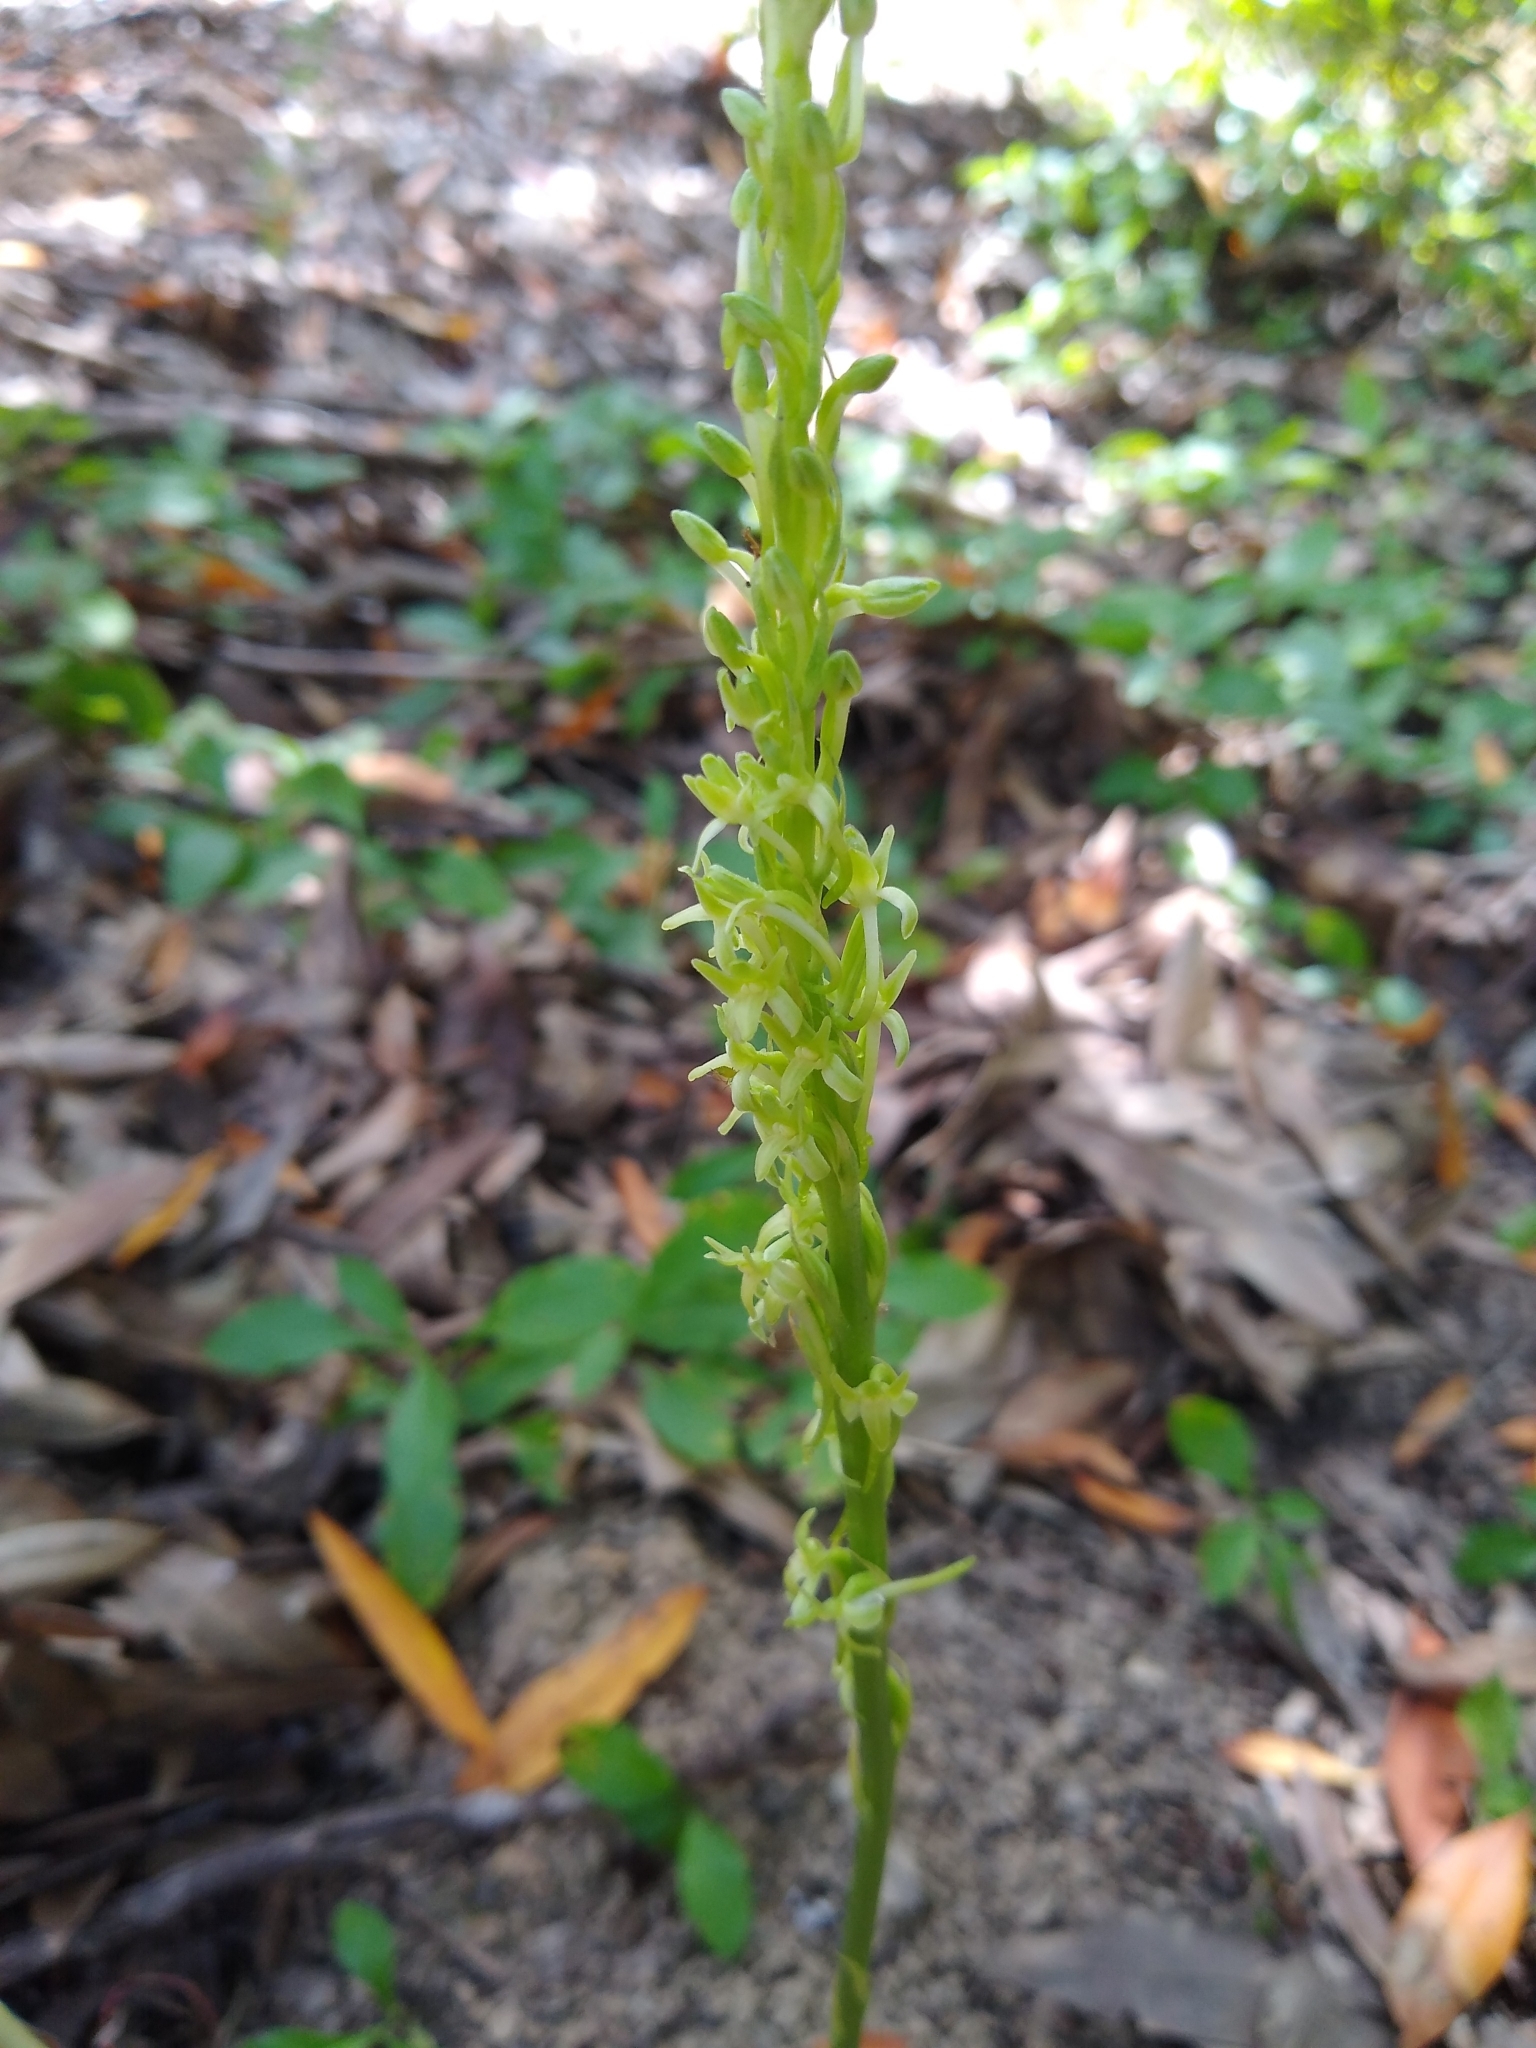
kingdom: Plantae
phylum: Tracheophyta
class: Liliopsida
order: Asparagales
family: Orchidaceae
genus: Platanthera
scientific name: Platanthera elongata
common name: Dense-flowered rein orchid
